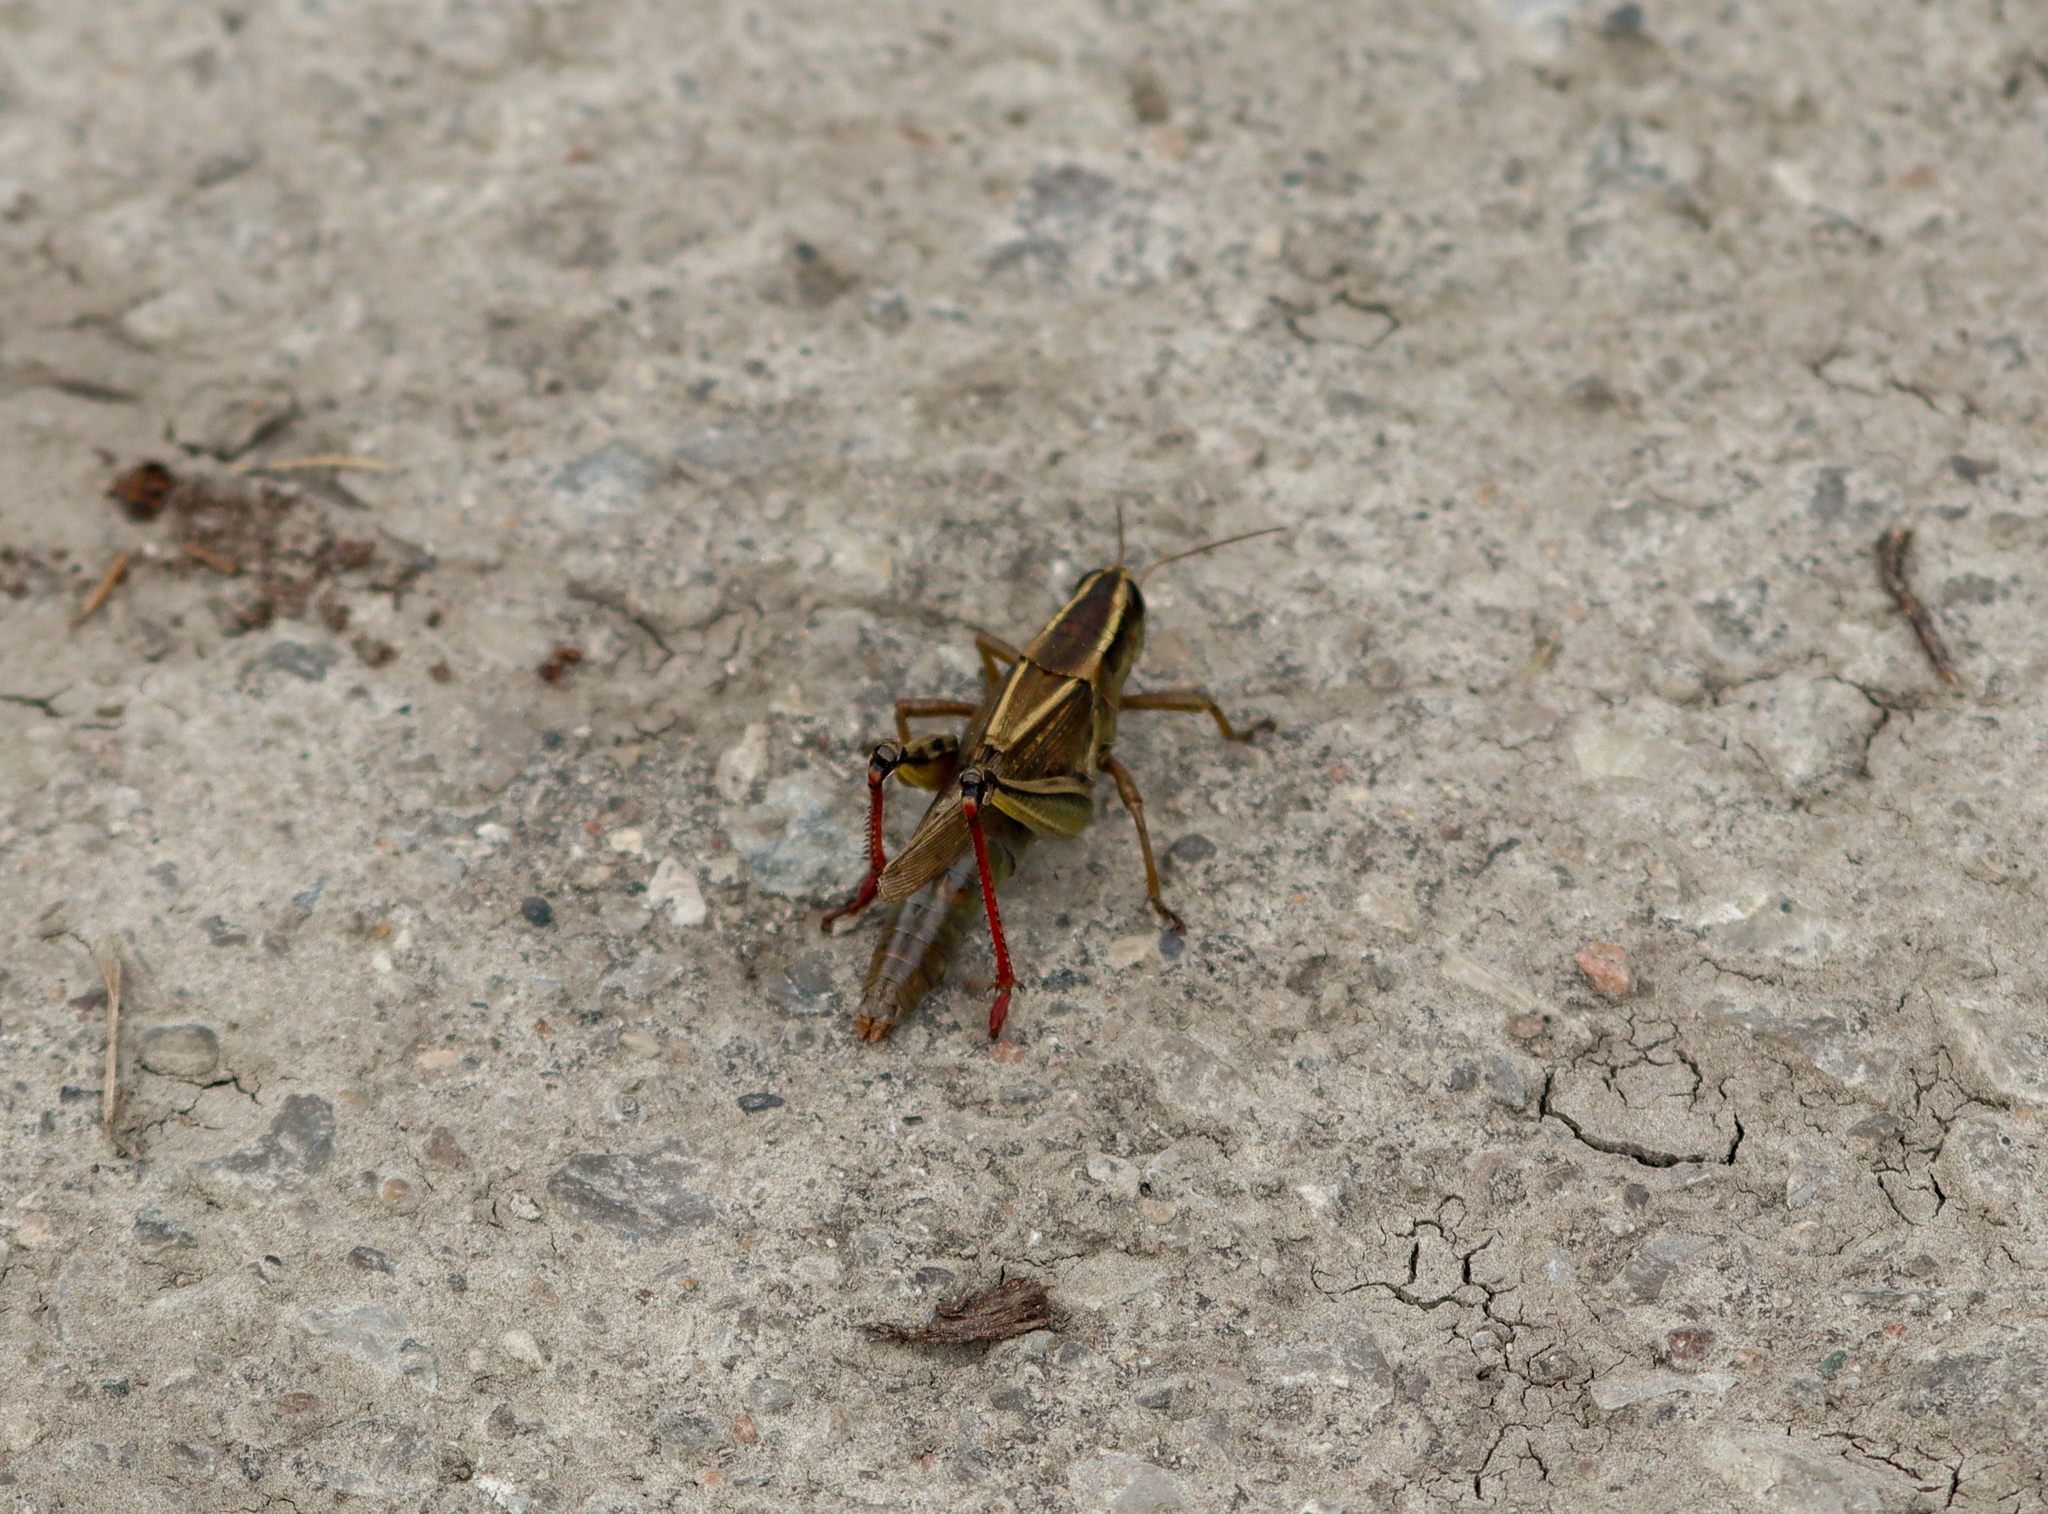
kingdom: Animalia
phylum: Arthropoda
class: Insecta
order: Orthoptera
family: Acrididae
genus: Melanoplus
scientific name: Melanoplus bivittatus
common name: Two-striped grasshopper
